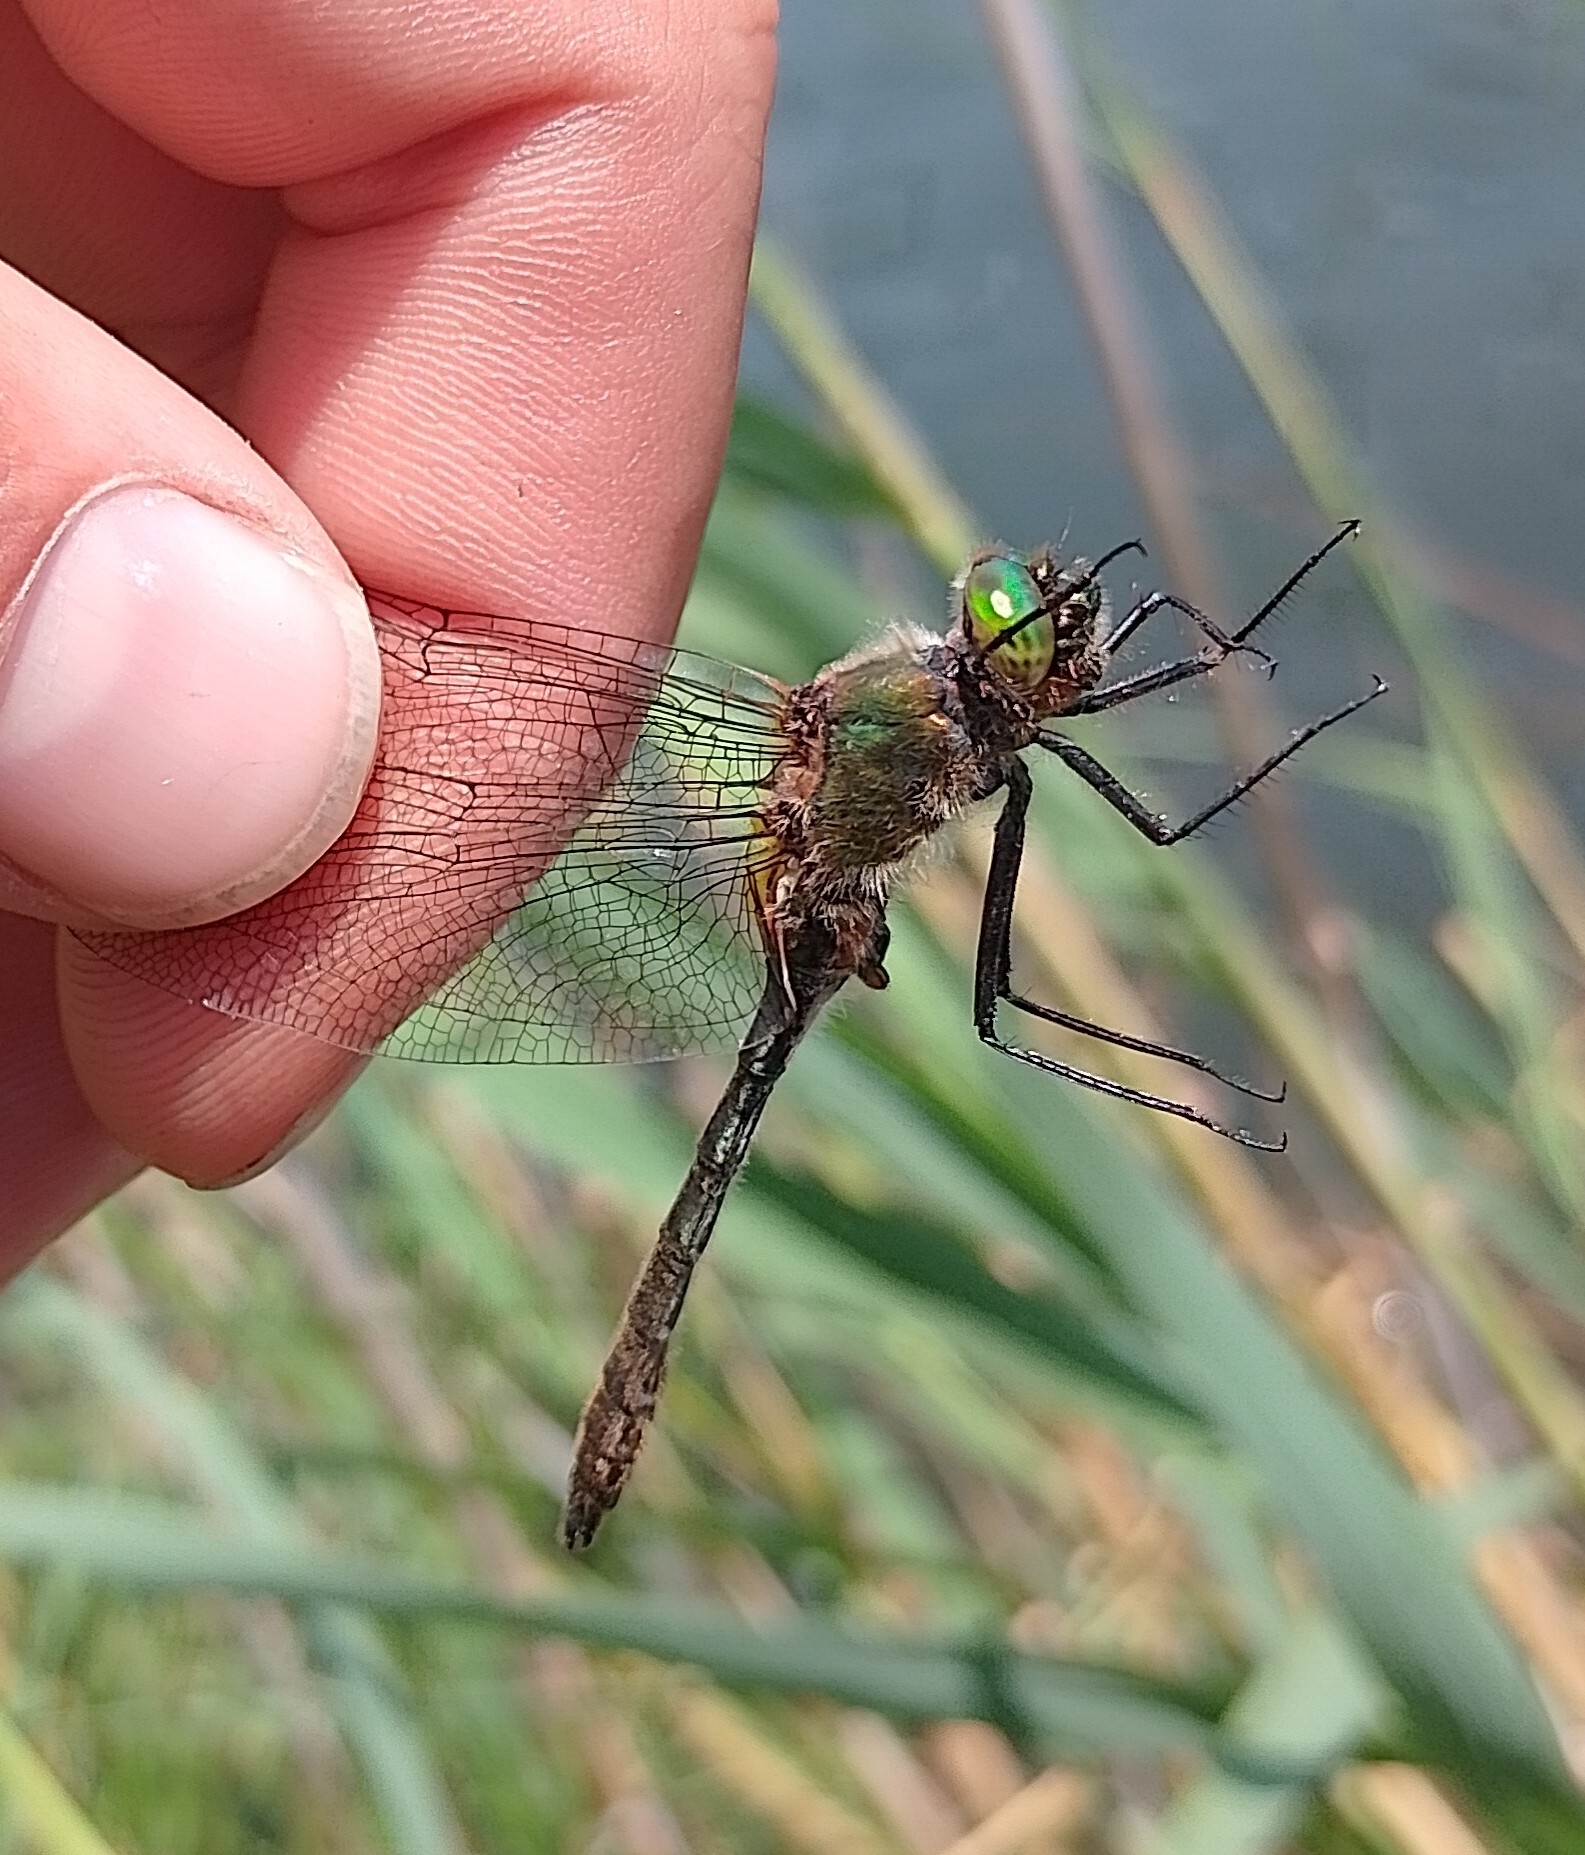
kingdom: Animalia
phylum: Arthropoda
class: Insecta
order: Odonata
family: Corduliidae
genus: Cordulia
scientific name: Cordulia aenea
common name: Downy emerald
